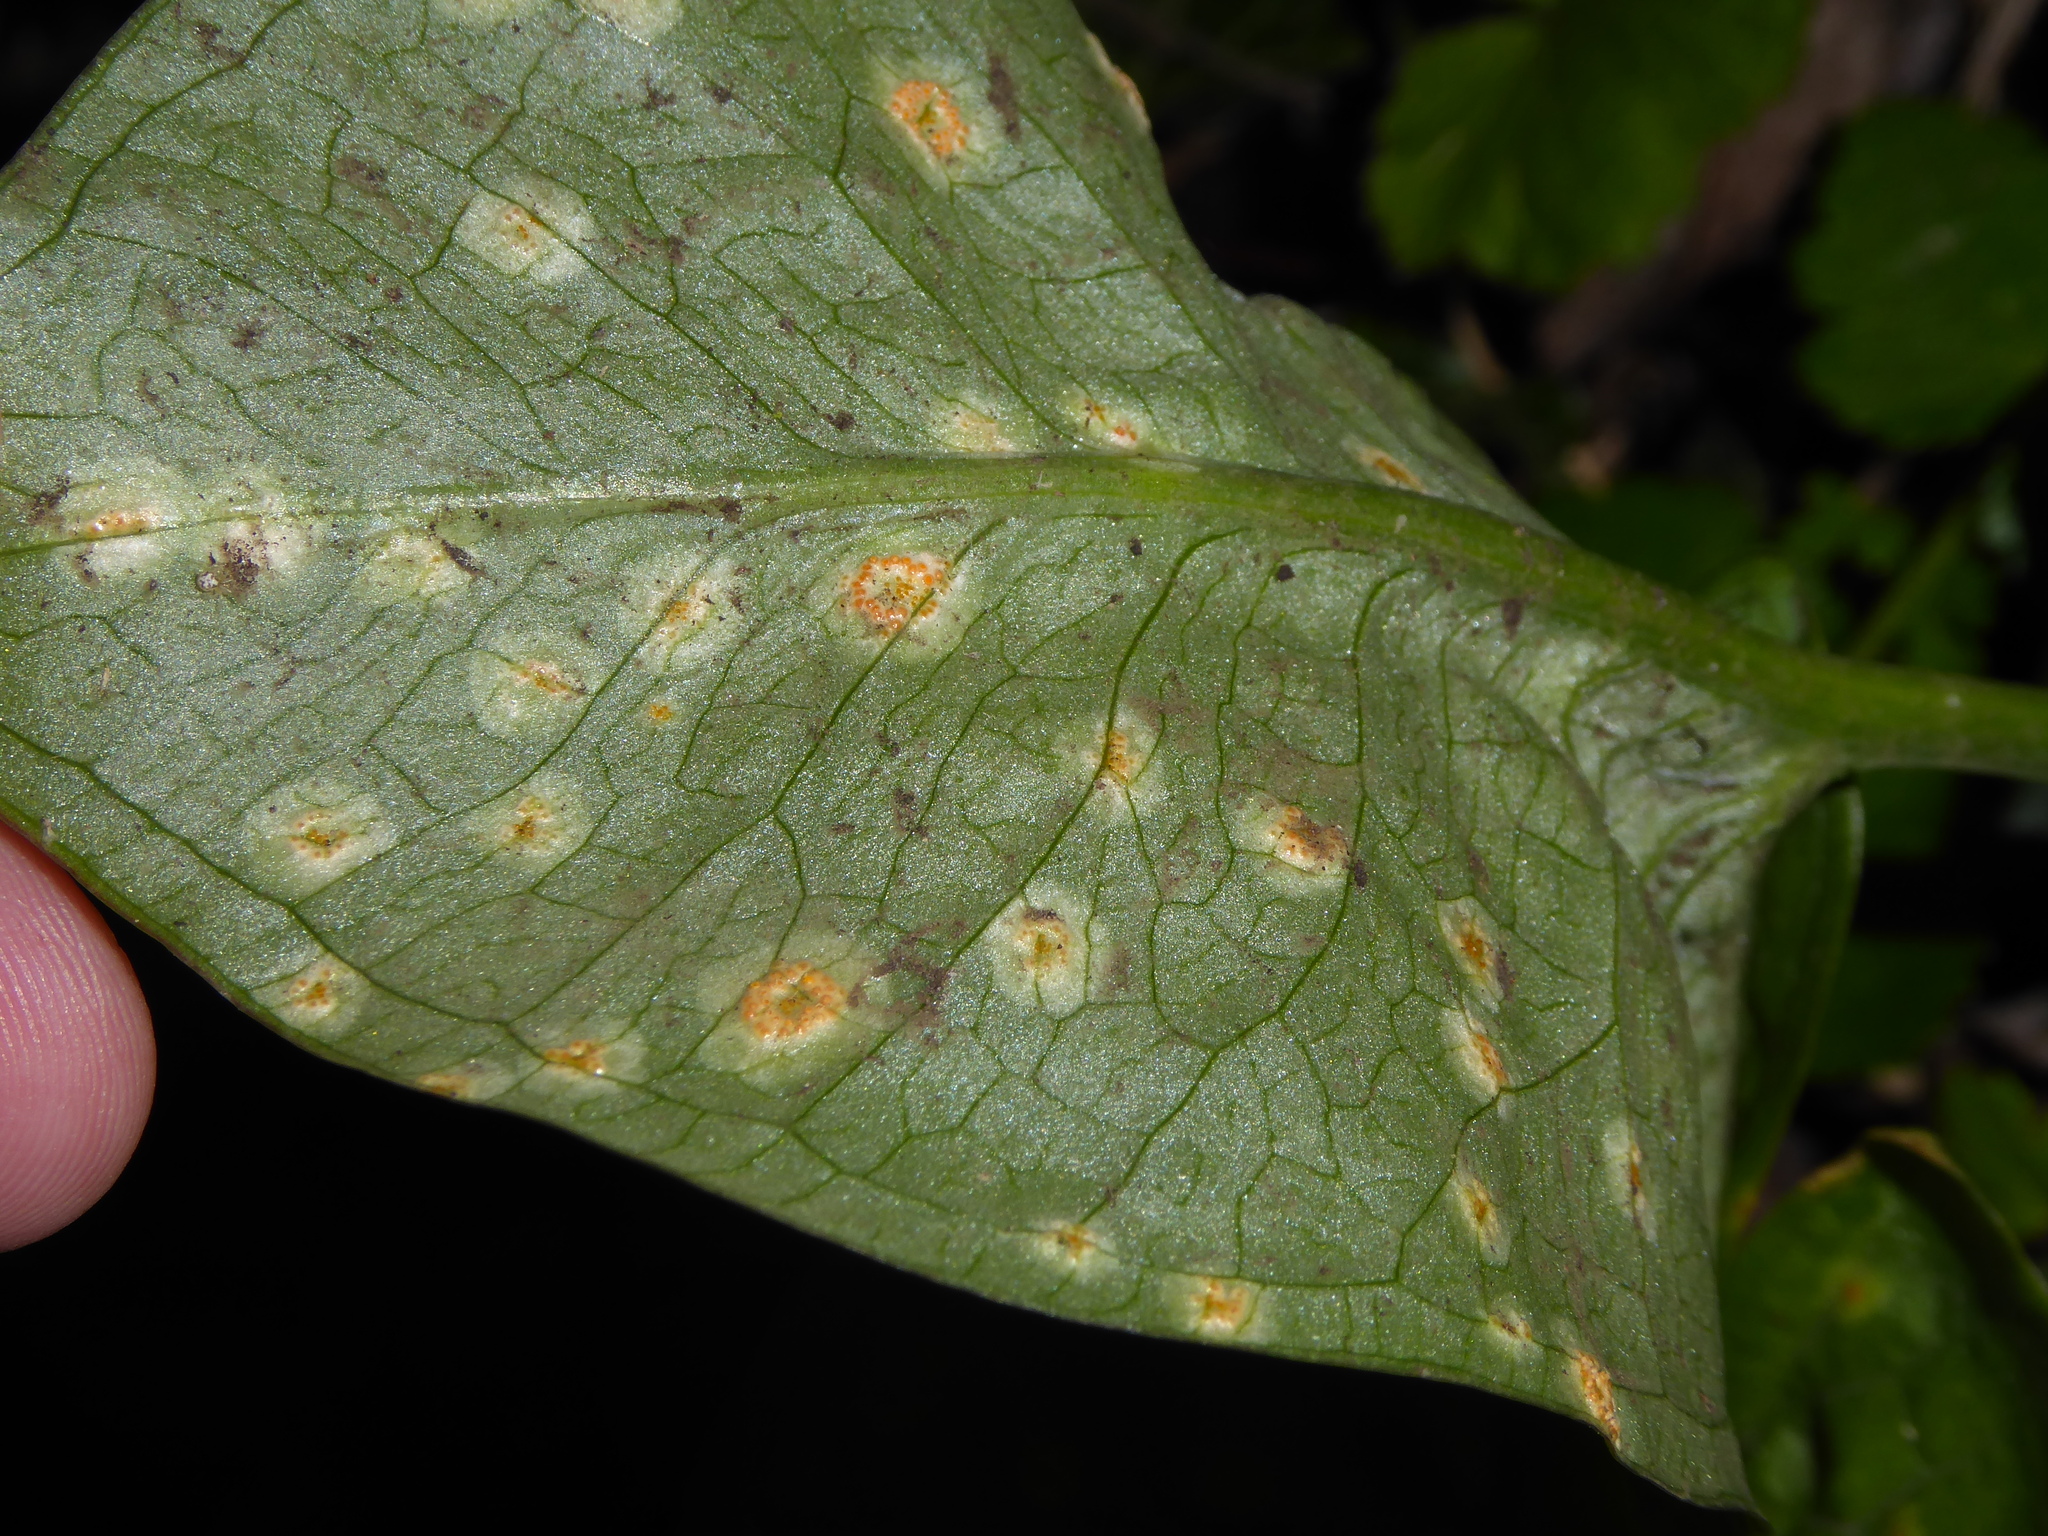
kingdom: Fungi
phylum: Basidiomycota
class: Pucciniomycetes
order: Pucciniales
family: Pucciniaceae
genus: Puccinia
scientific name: Puccinia sessilis
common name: Arum rust
